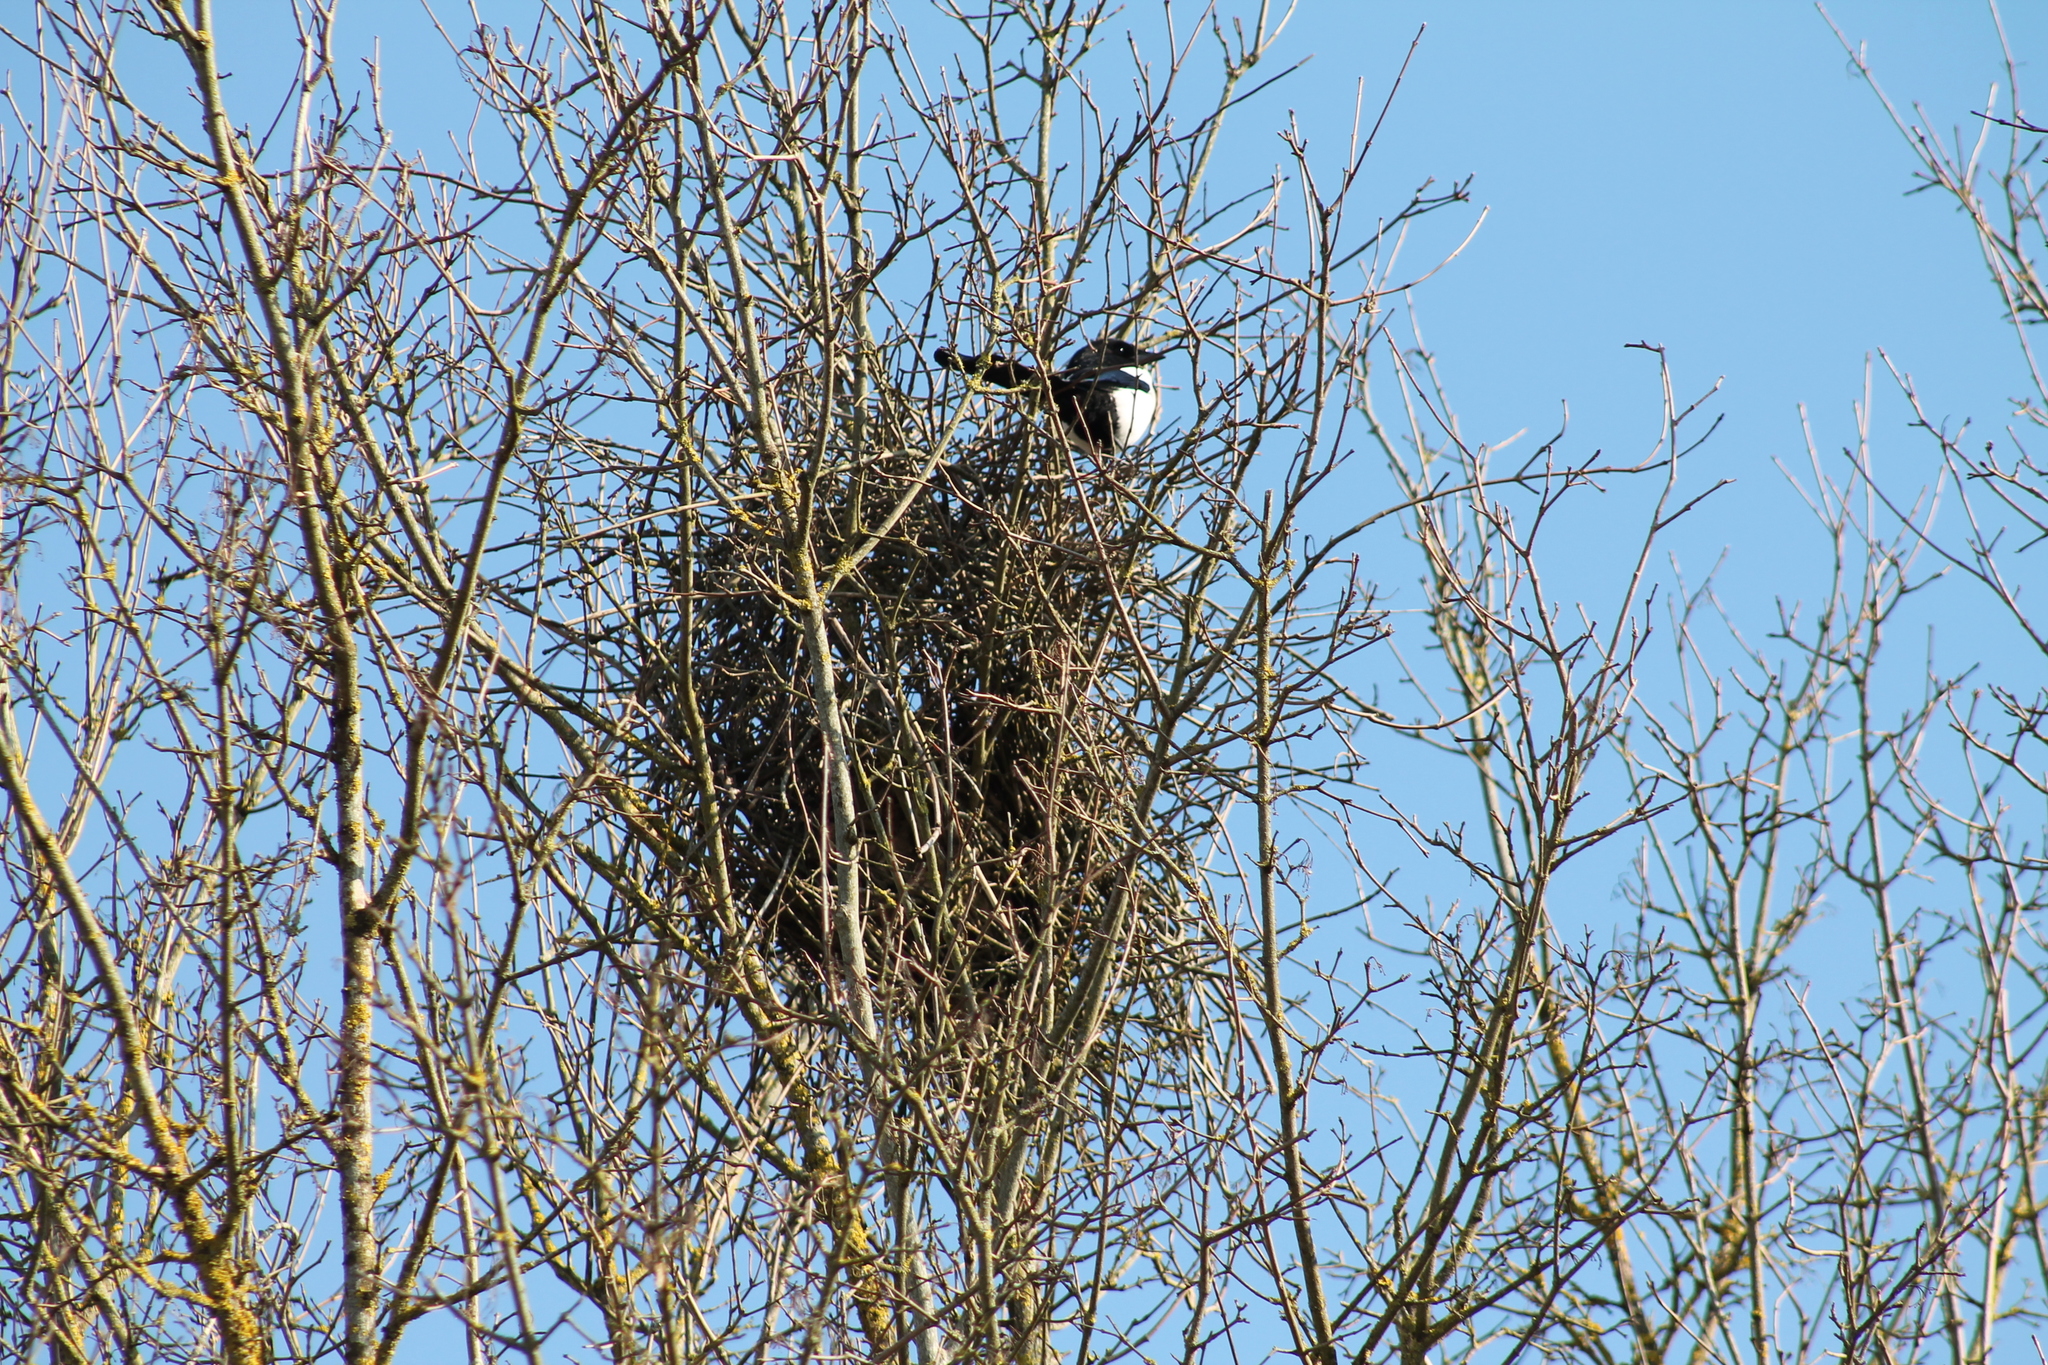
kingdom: Animalia
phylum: Chordata
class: Aves
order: Passeriformes
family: Corvidae
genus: Pica
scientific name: Pica pica
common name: Eurasian magpie
